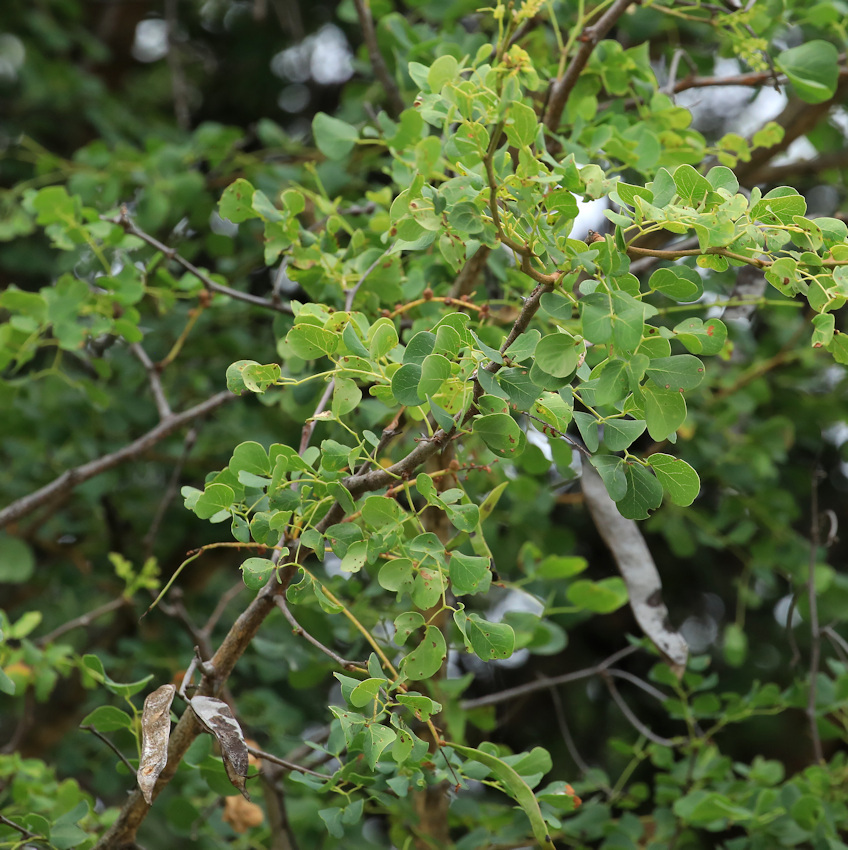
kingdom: Plantae
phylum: Tracheophyta
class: Magnoliopsida
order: Fabales
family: Fabaceae
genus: Senegalia
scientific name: Senegalia nigrescens
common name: Knobthorn
